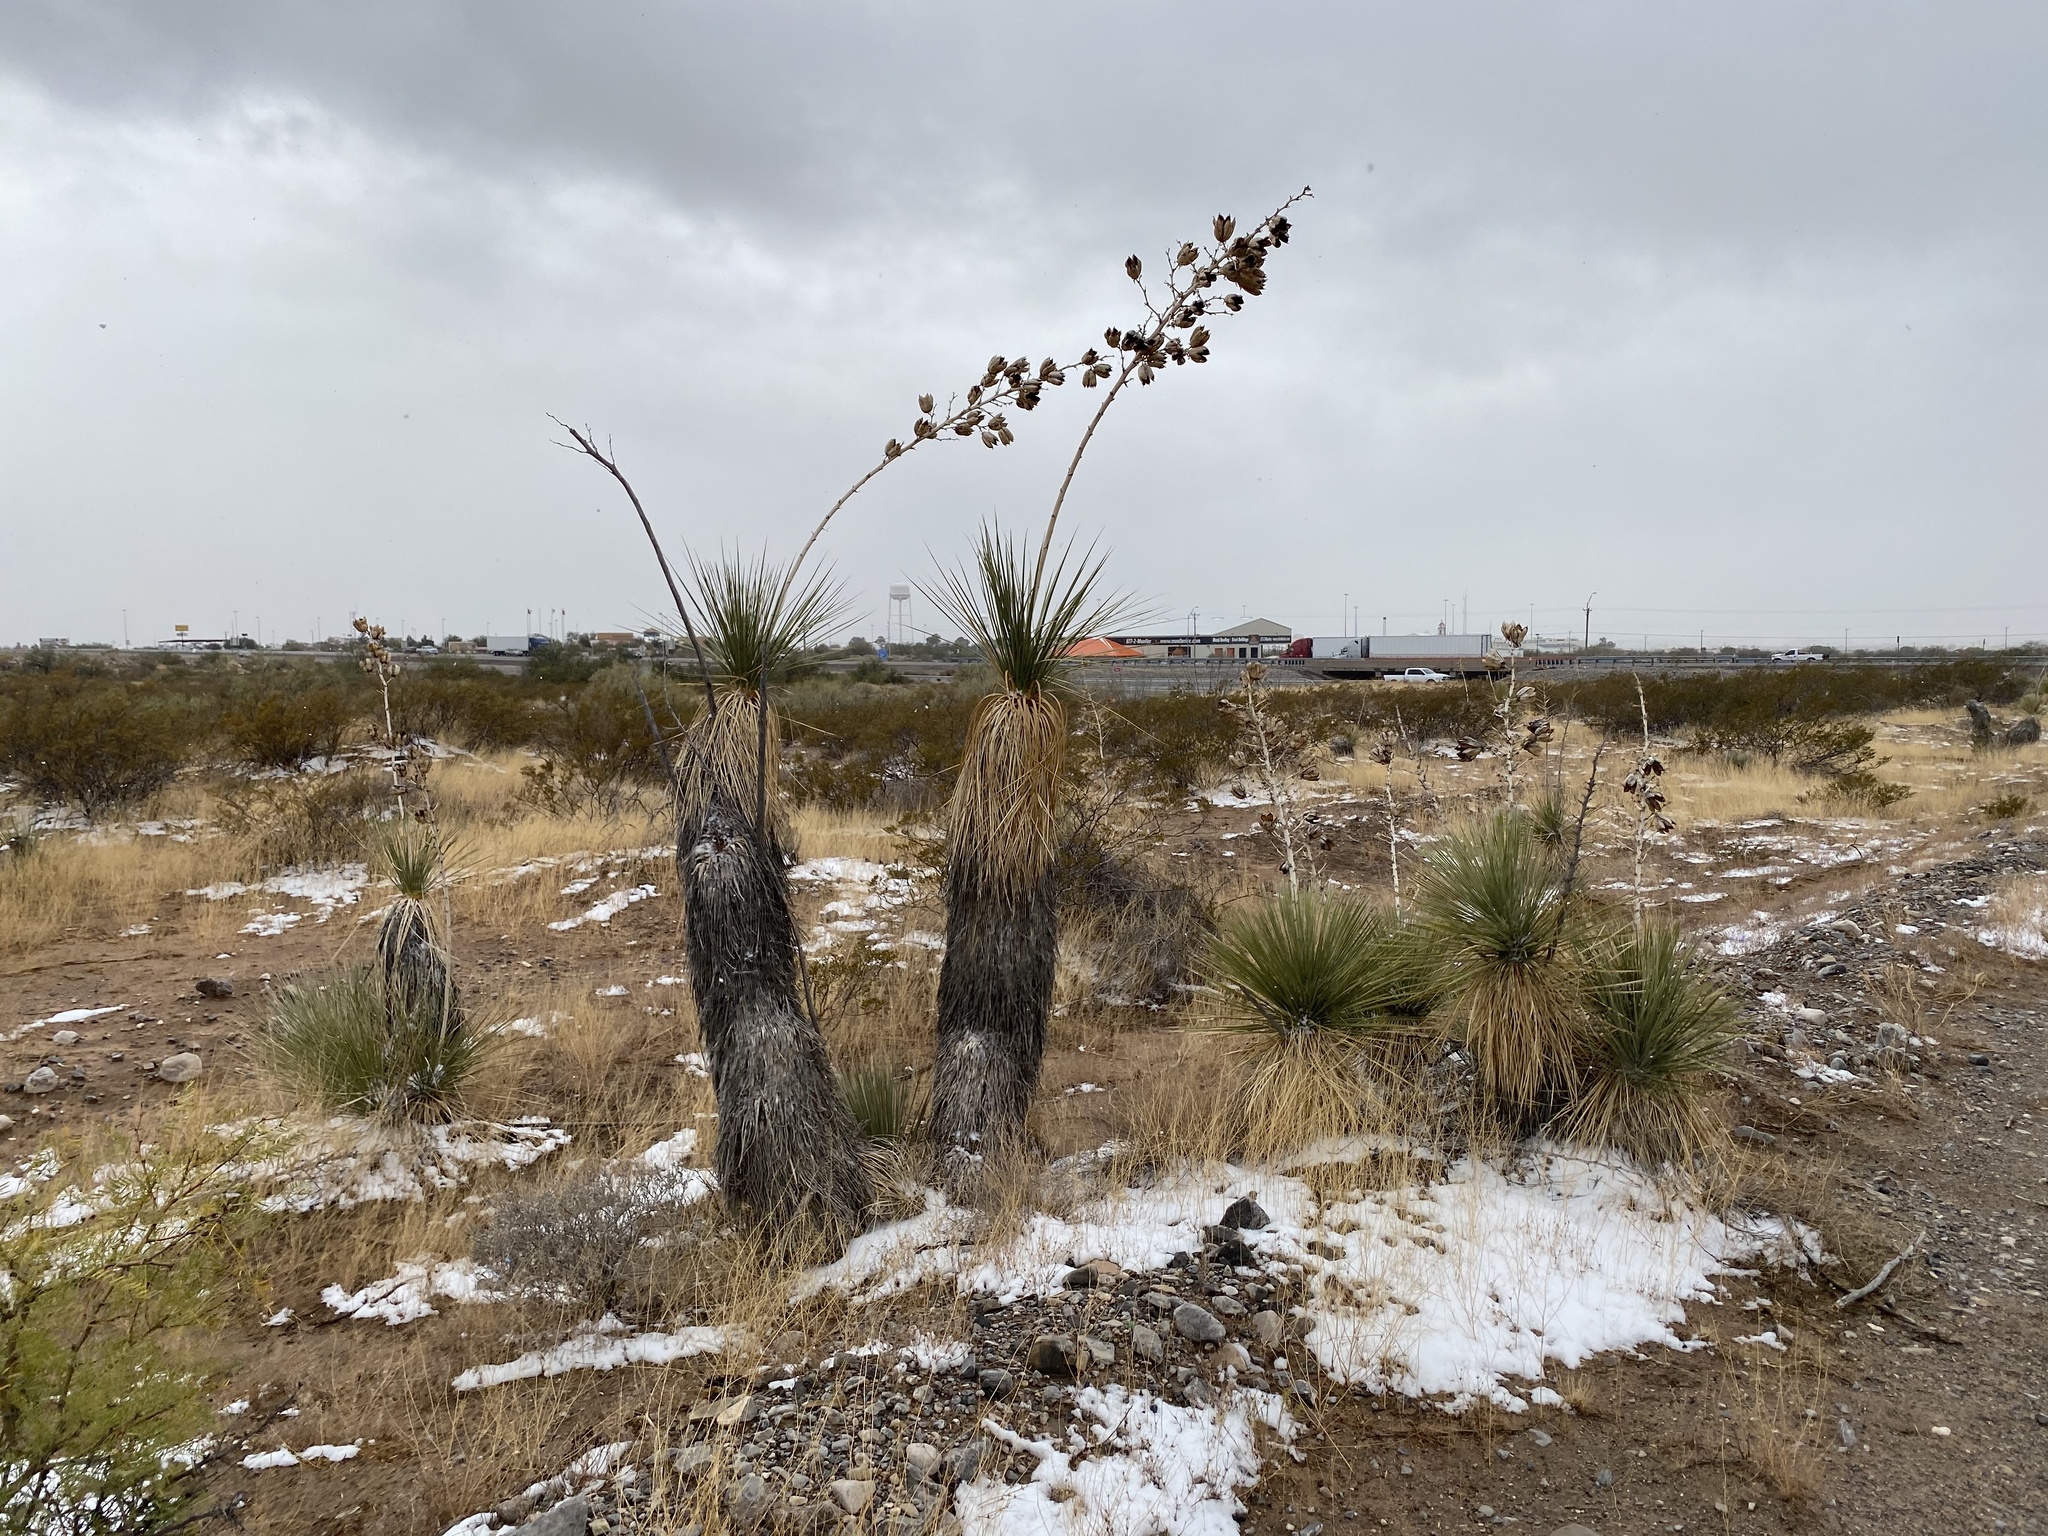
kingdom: Plantae
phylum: Tracheophyta
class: Liliopsida
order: Asparagales
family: Asparagaceae
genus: Yucca
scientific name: Yucca elata
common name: Palmella
